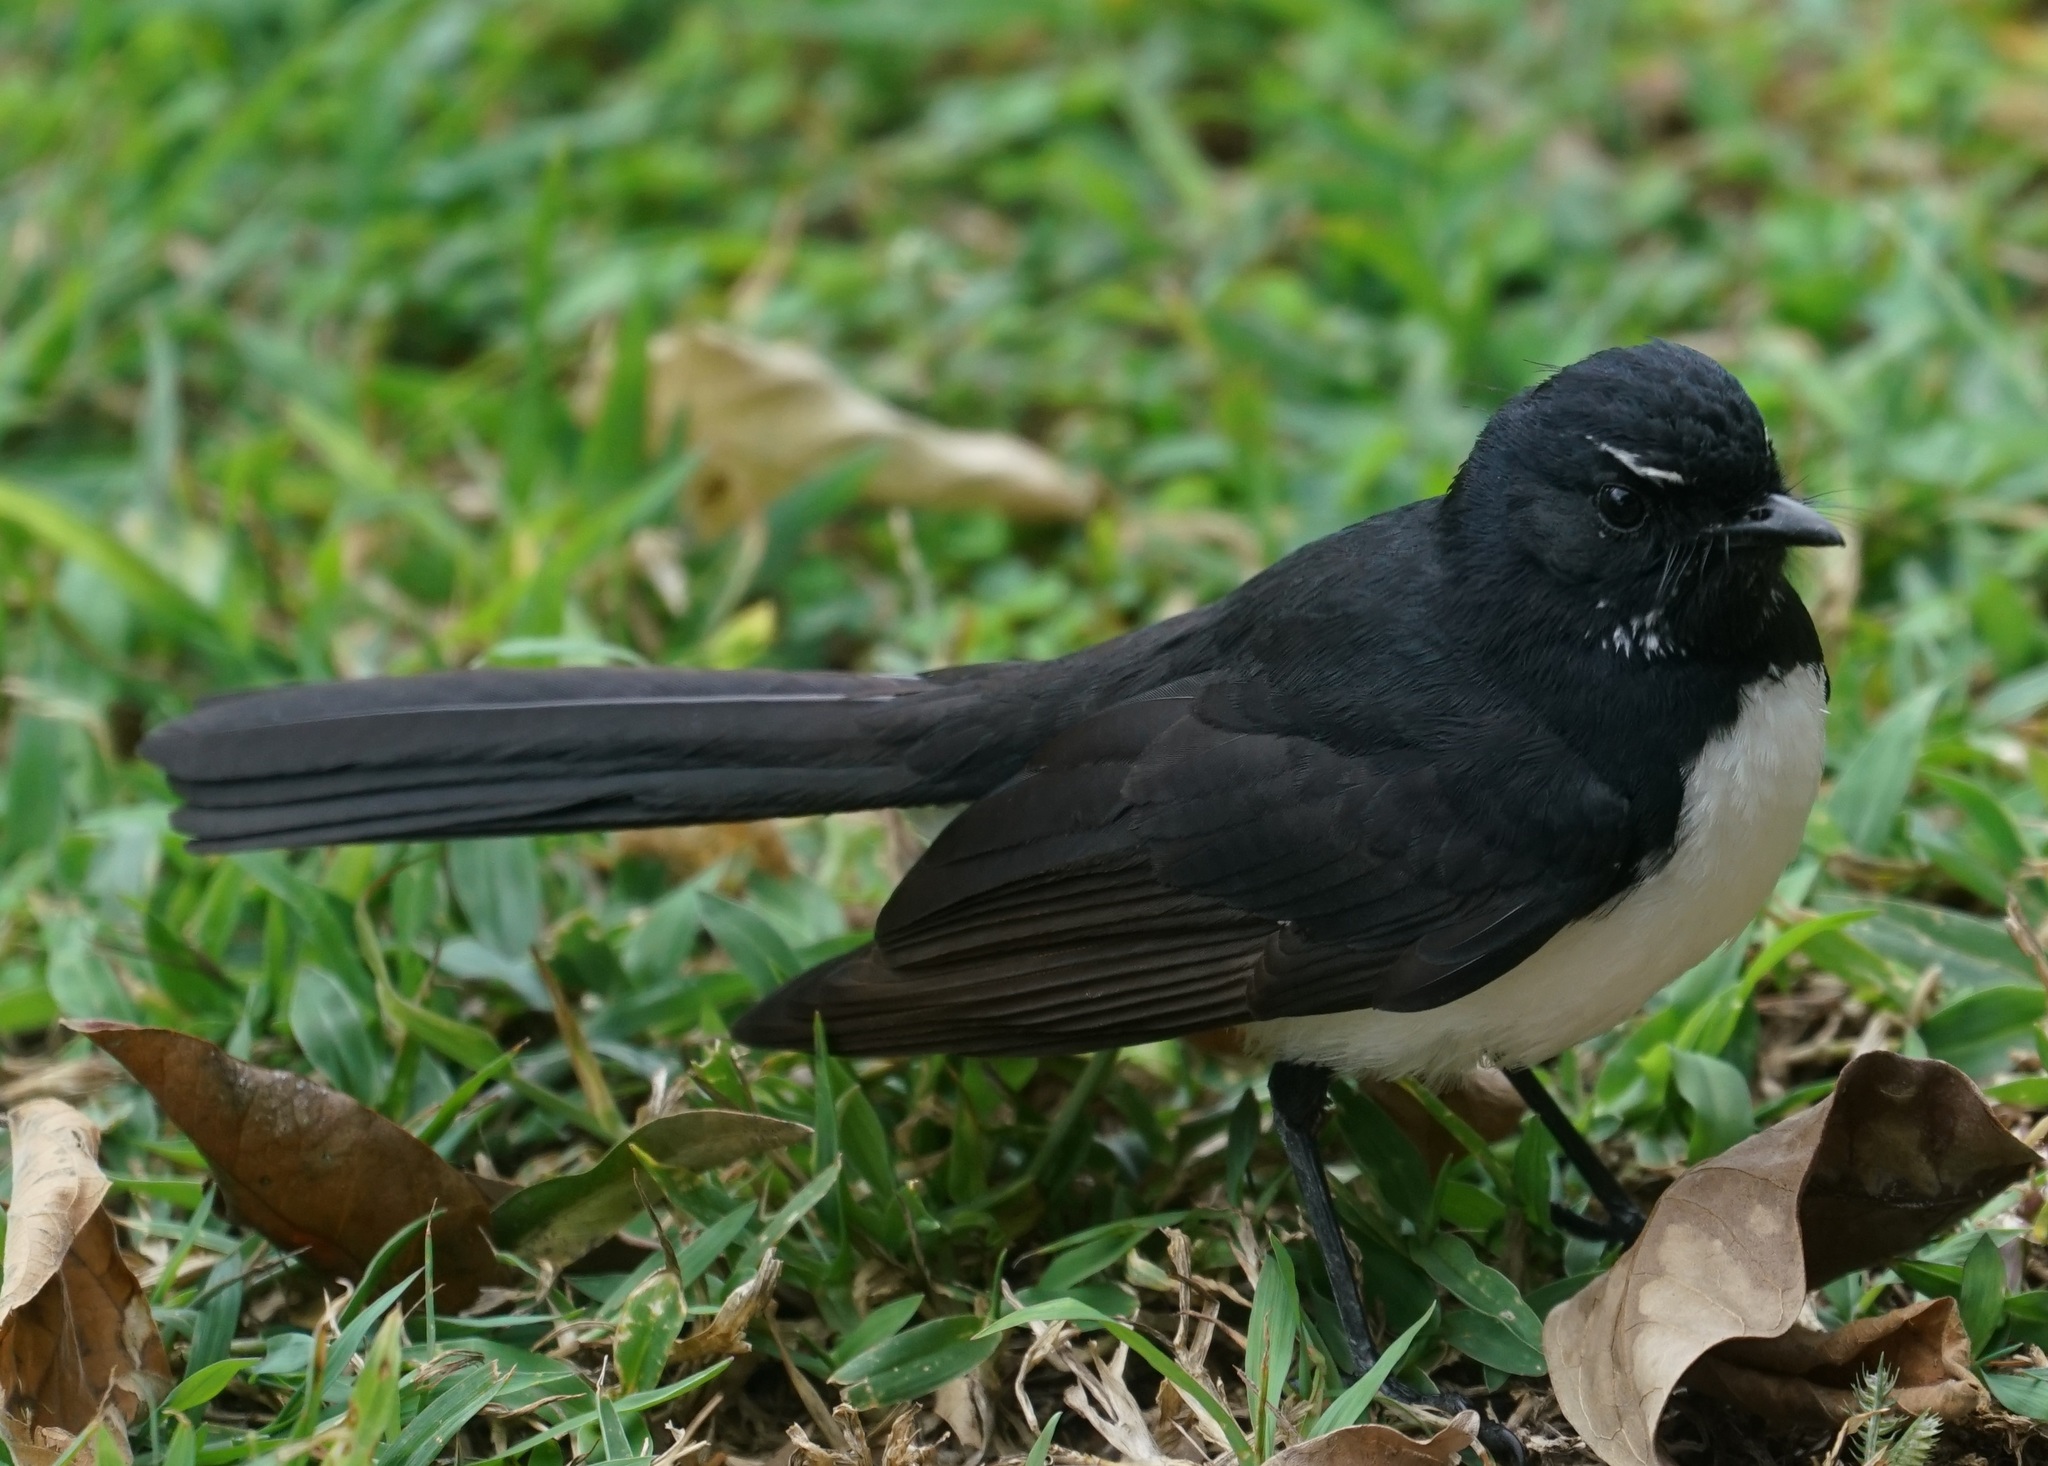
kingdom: Animalia
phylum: Chordata
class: Aves
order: Passeriformes
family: Rhipiduridae
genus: Rhipidura
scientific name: Rhipidura leucophrys
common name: Willie wagtail
